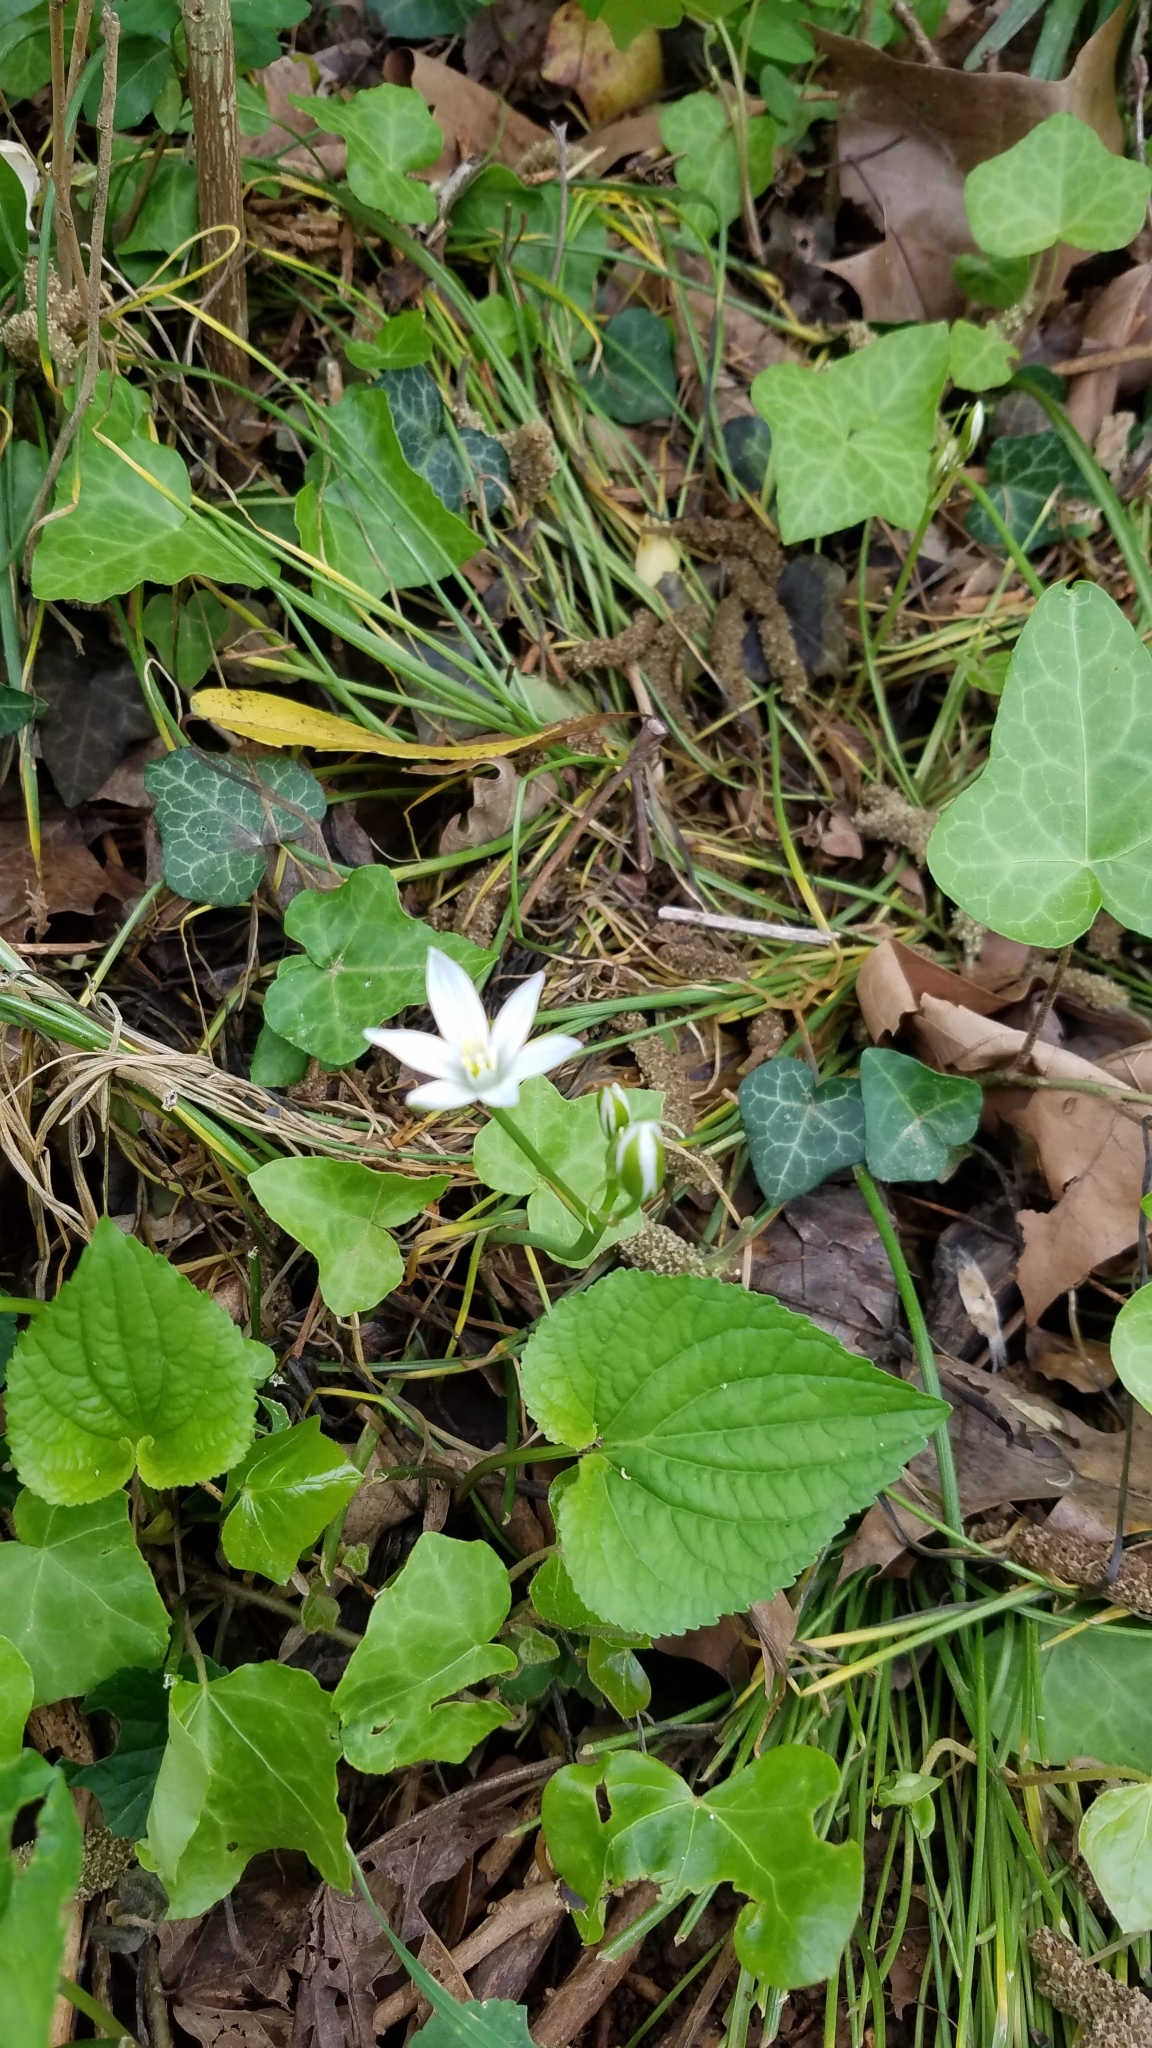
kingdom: Plantae
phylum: Tracheophyta
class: Liliopsida
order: Asparagales
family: Asparagaceae
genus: Ornithogalum
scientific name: Ornithogalum umbellatum
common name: Garden star-of-bethlehem
